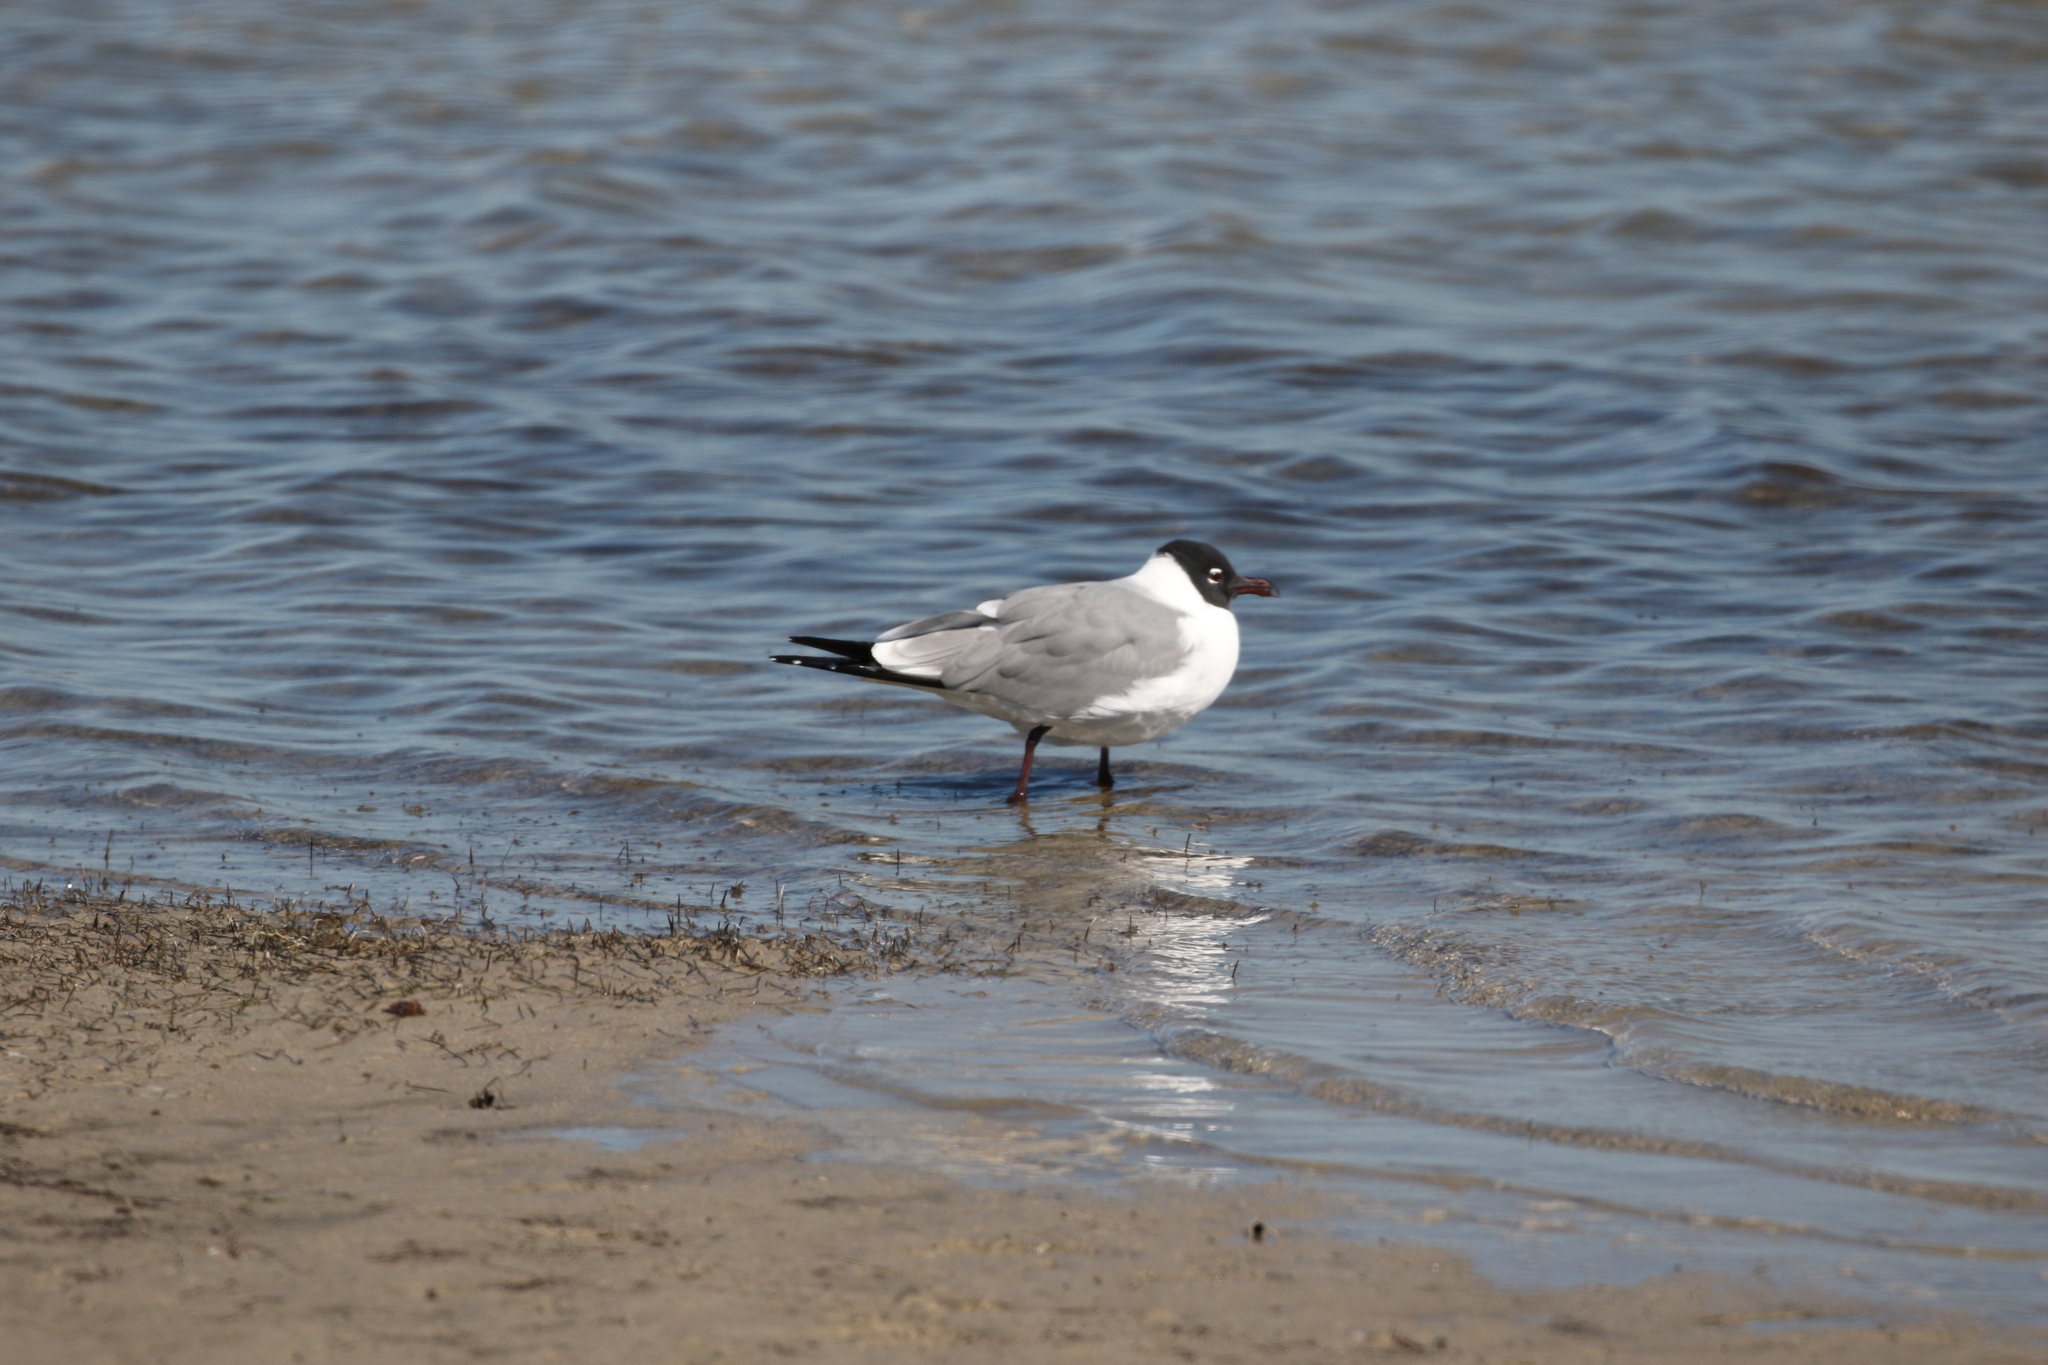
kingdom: Animalia
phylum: Chordata
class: Aves
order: Charadriiformes
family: Laridae
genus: Leucophaeus
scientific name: Leucophaeus atricilla
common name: Laughing gull
